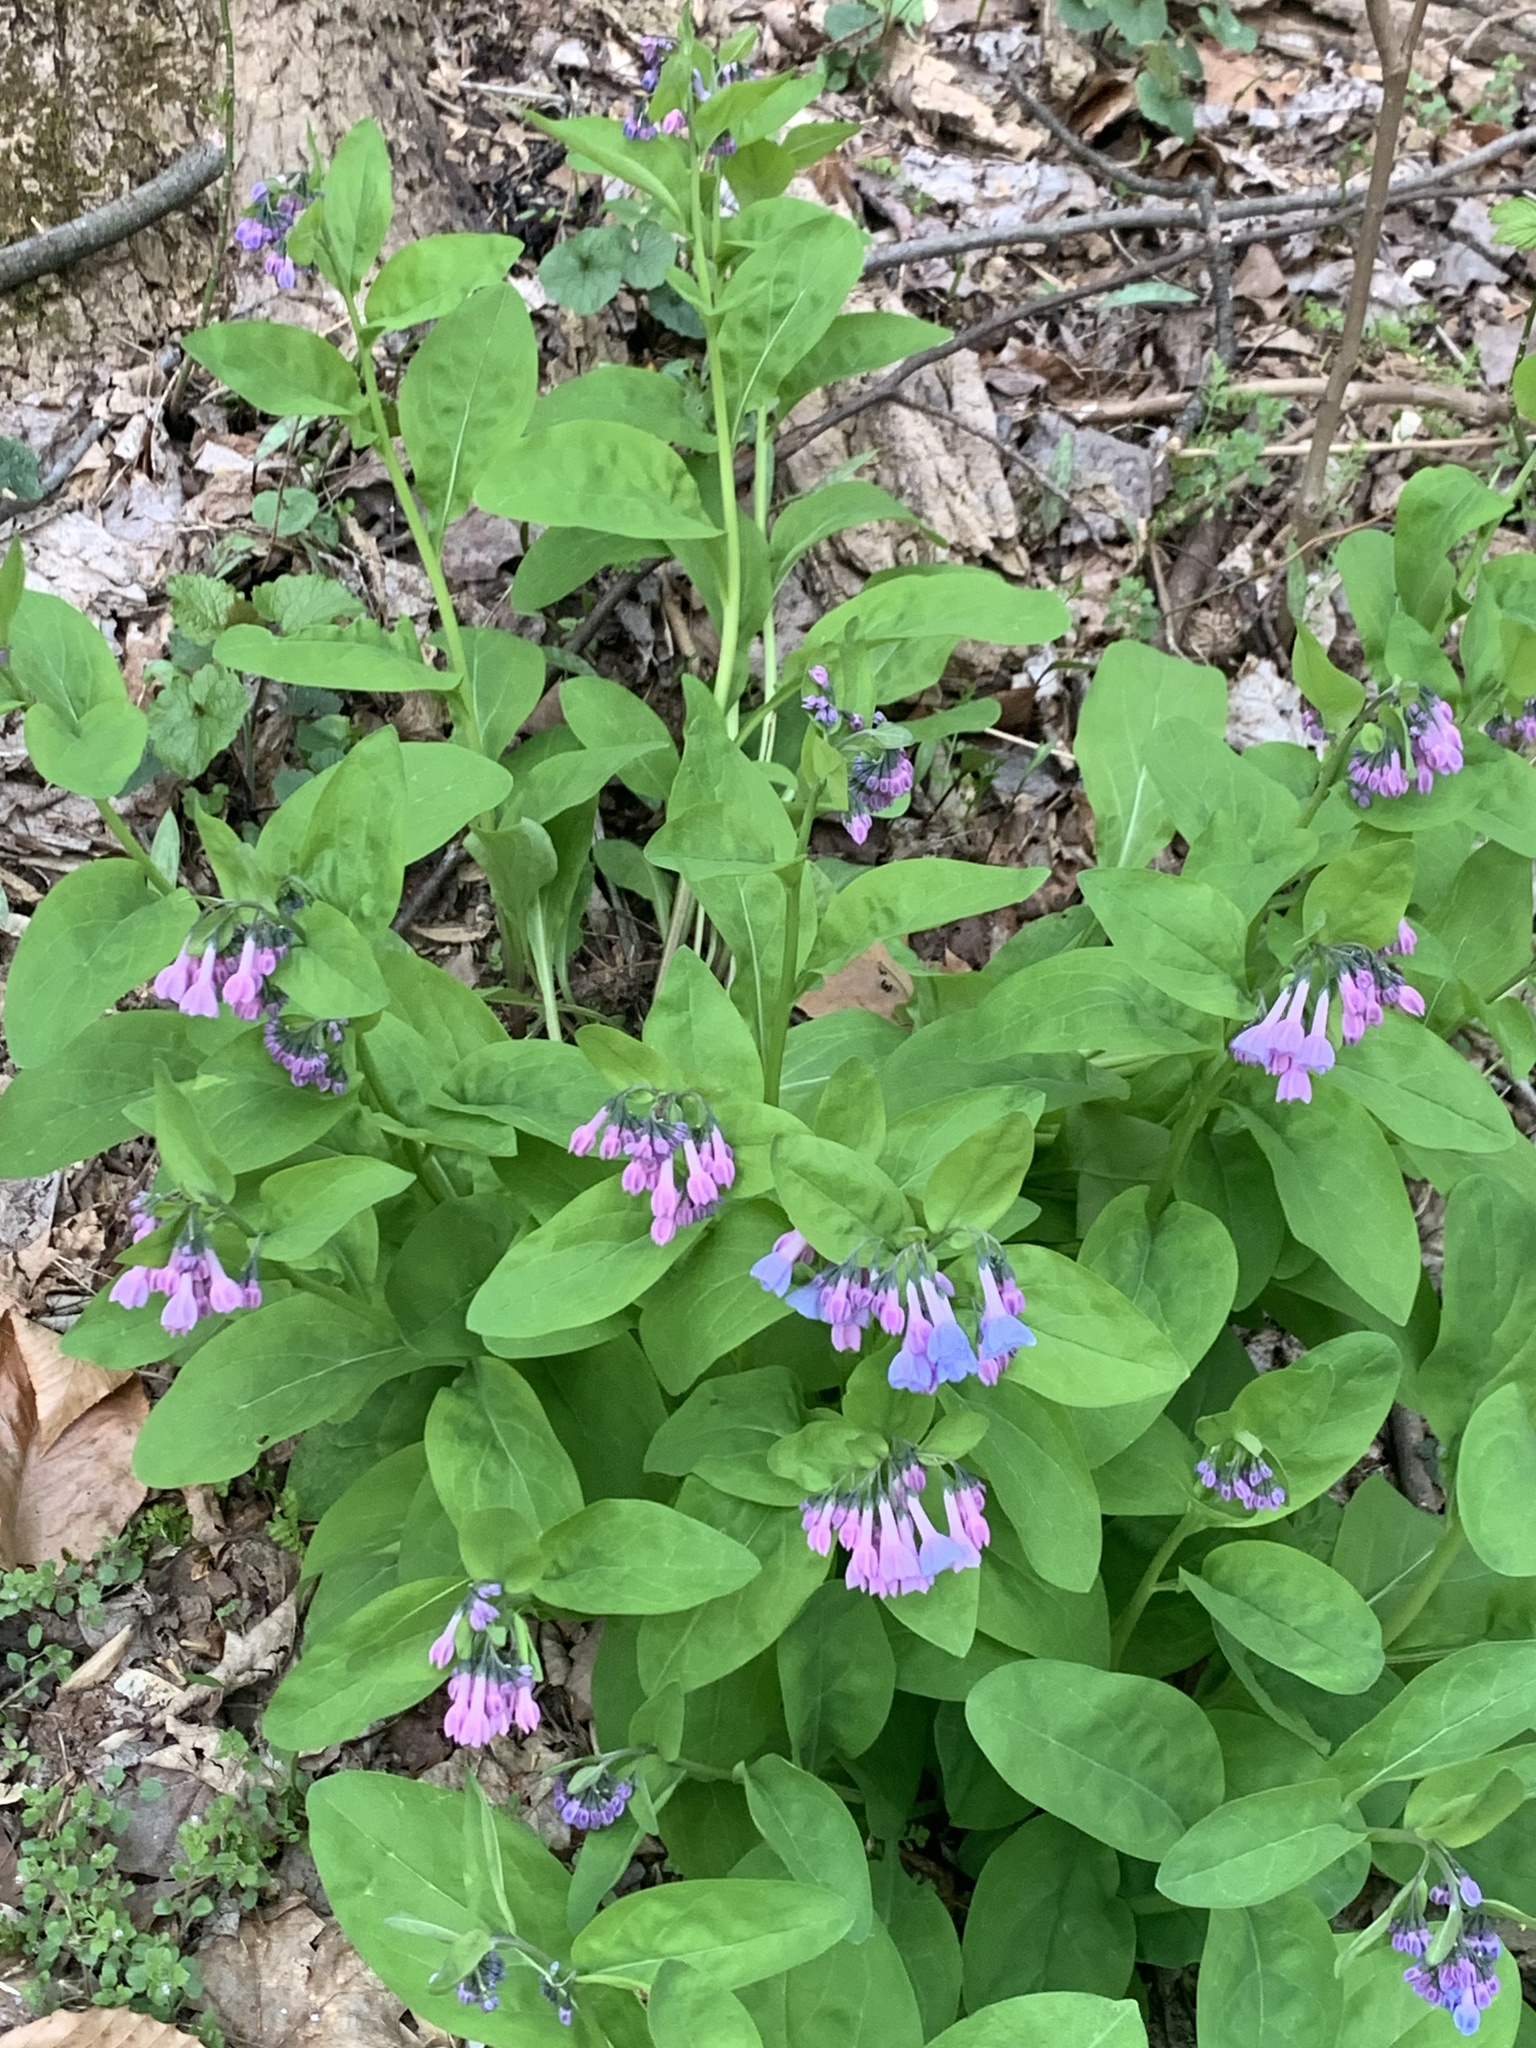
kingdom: Plantae
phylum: Tracheophyta
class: Magnoliopsida
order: Boraginales
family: Boraginaceae
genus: Mertensia
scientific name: Mertensia virginica
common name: Virginia bluebells
